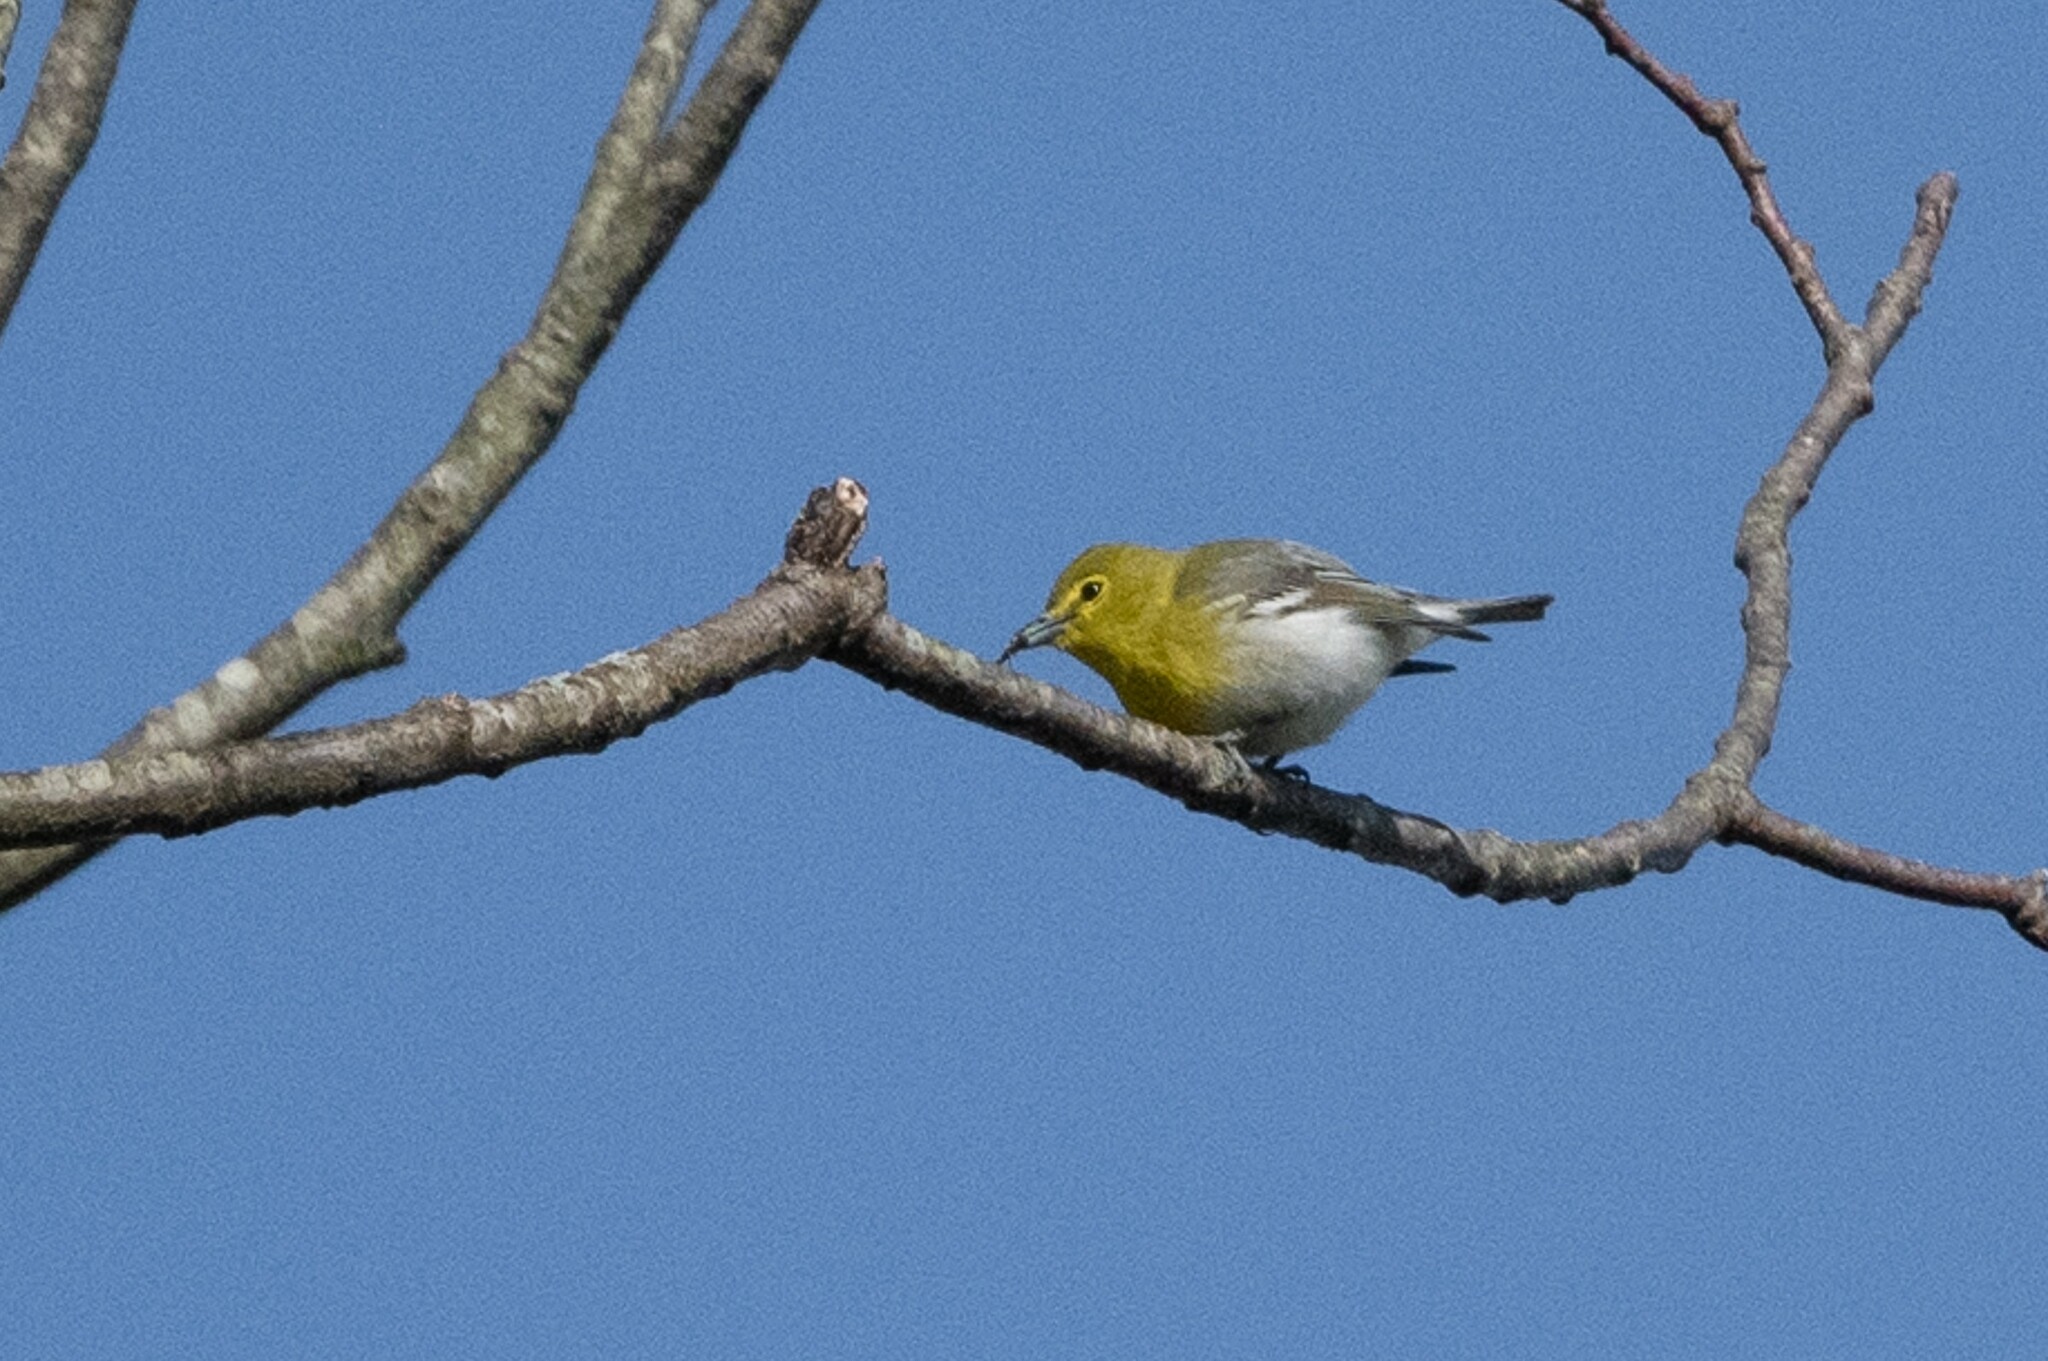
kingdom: Animalia
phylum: Chordata
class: Aves
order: Passeriformes
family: Vireonidae
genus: Vireo
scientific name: Vireo flavifrons
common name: Yellow-throated vireo
